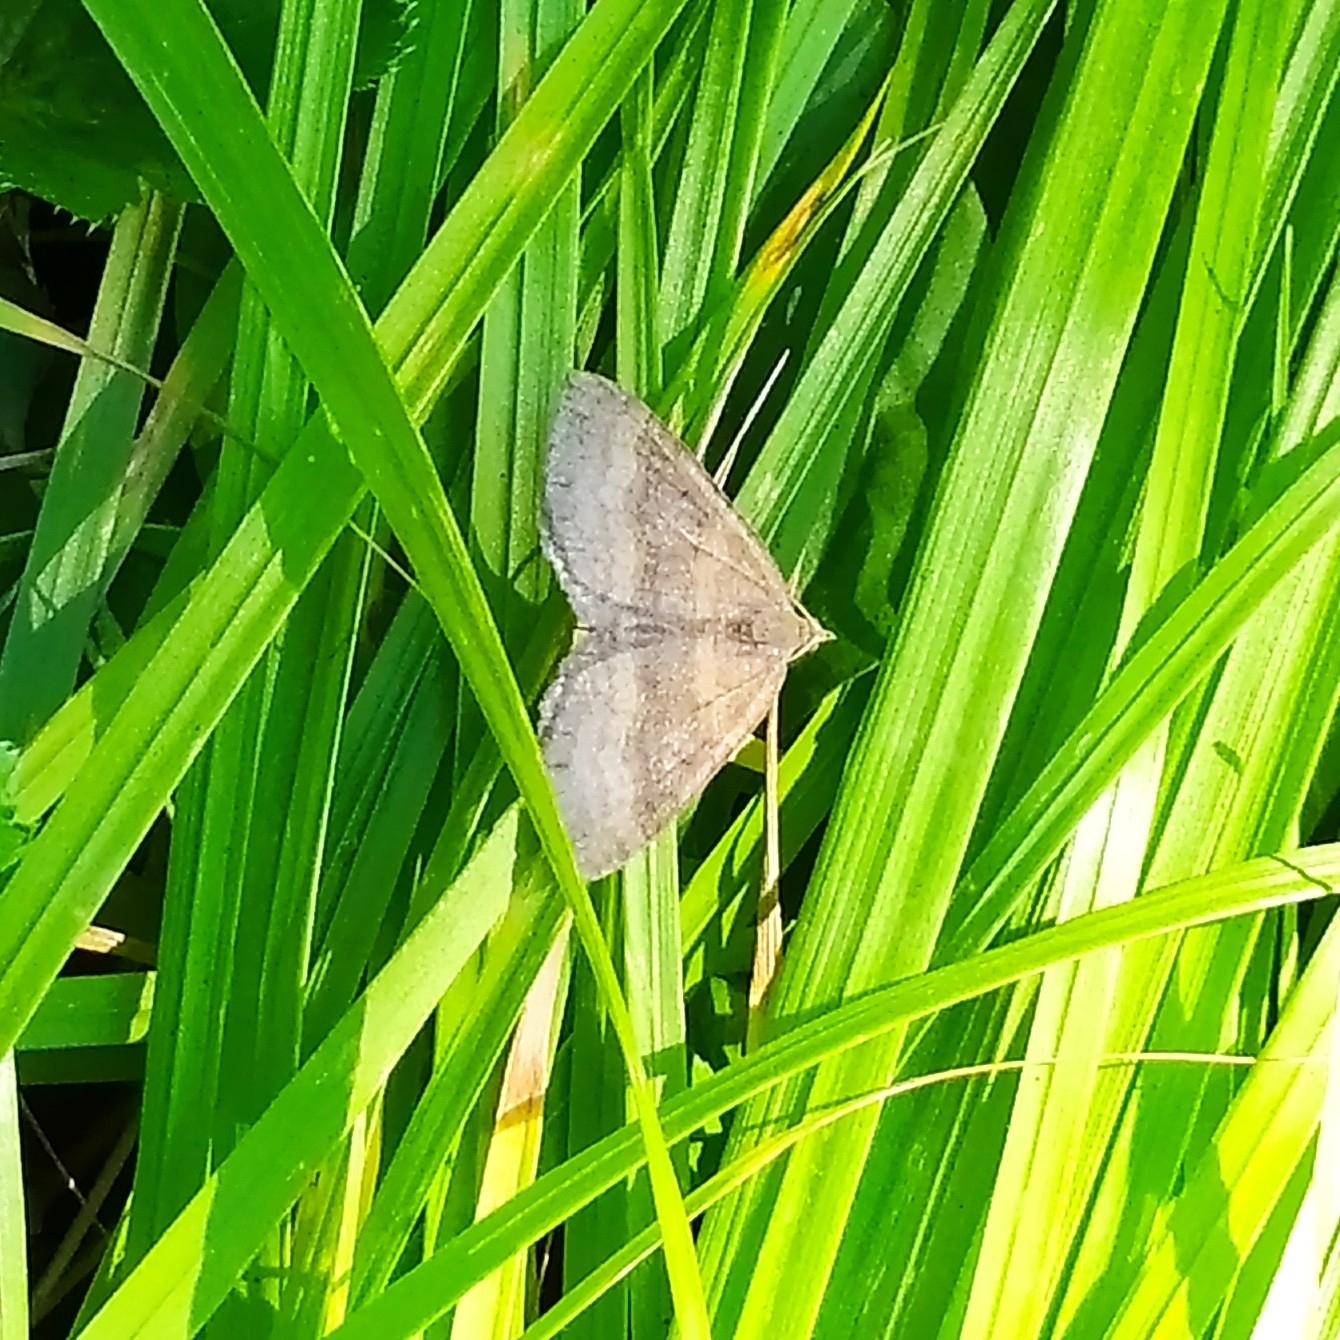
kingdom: Animalia
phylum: Arthropoda
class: Insecta
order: Lepidoptera
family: Geometridae
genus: Scotopteryx
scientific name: Scotopteryx chenopodiata
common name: Shaded broad-bar
